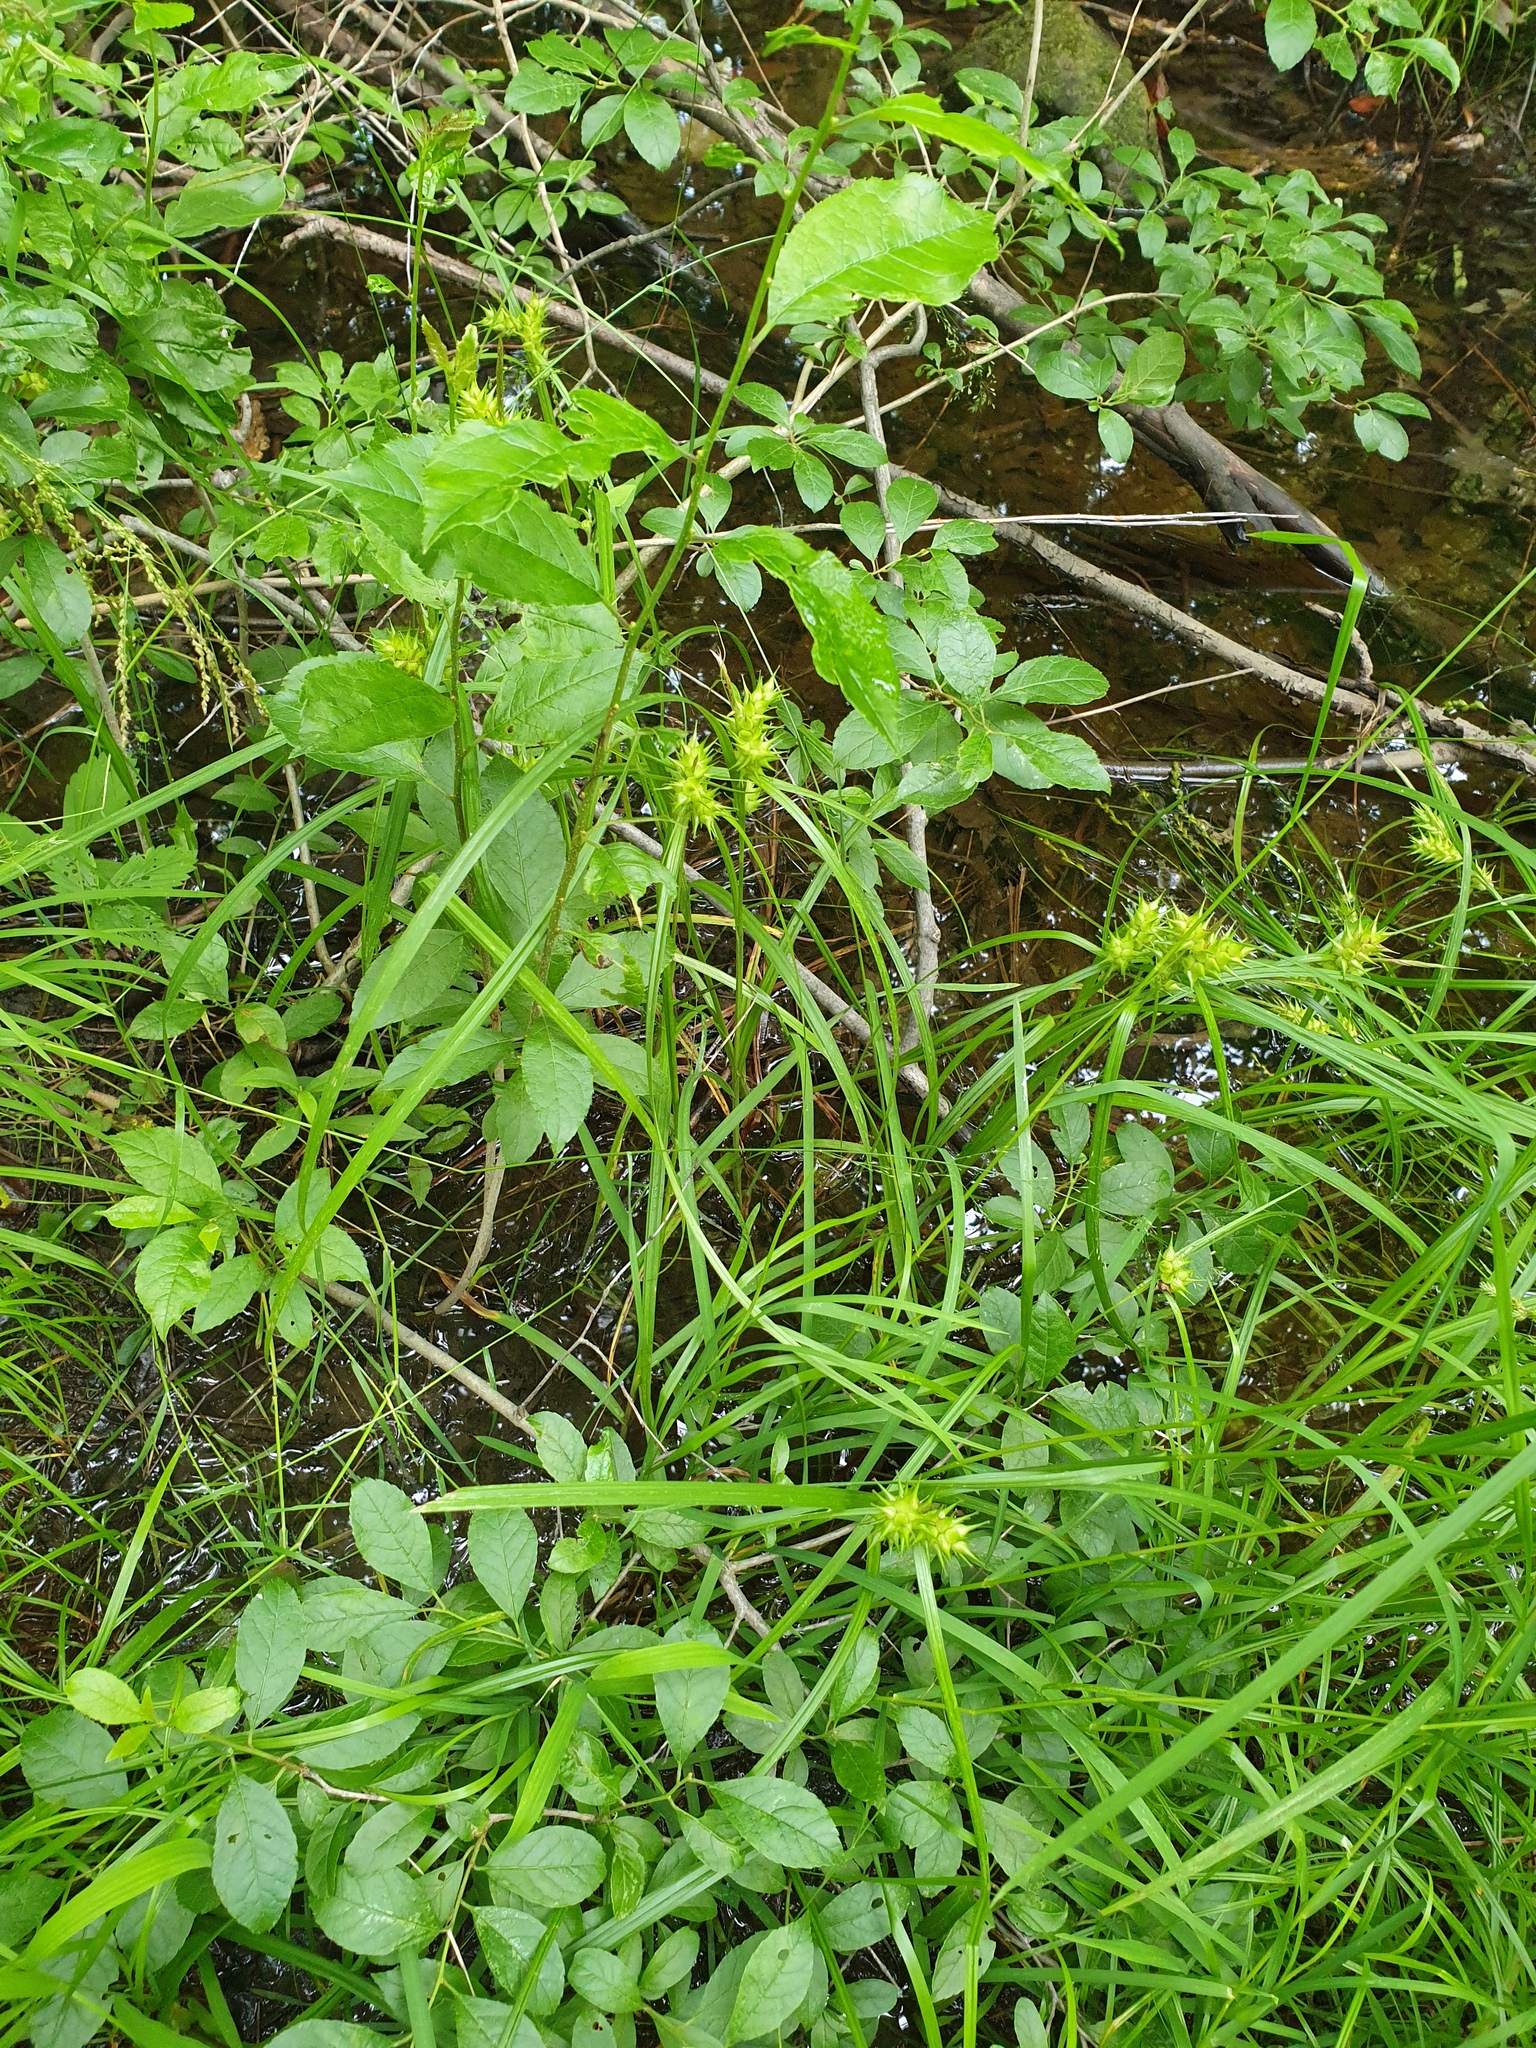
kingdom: Plantae
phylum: Tracheophyta
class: Liliopsida
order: Poales
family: Cyperaceae
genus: Carex
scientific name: Carex lupulina
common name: Hop sedge
